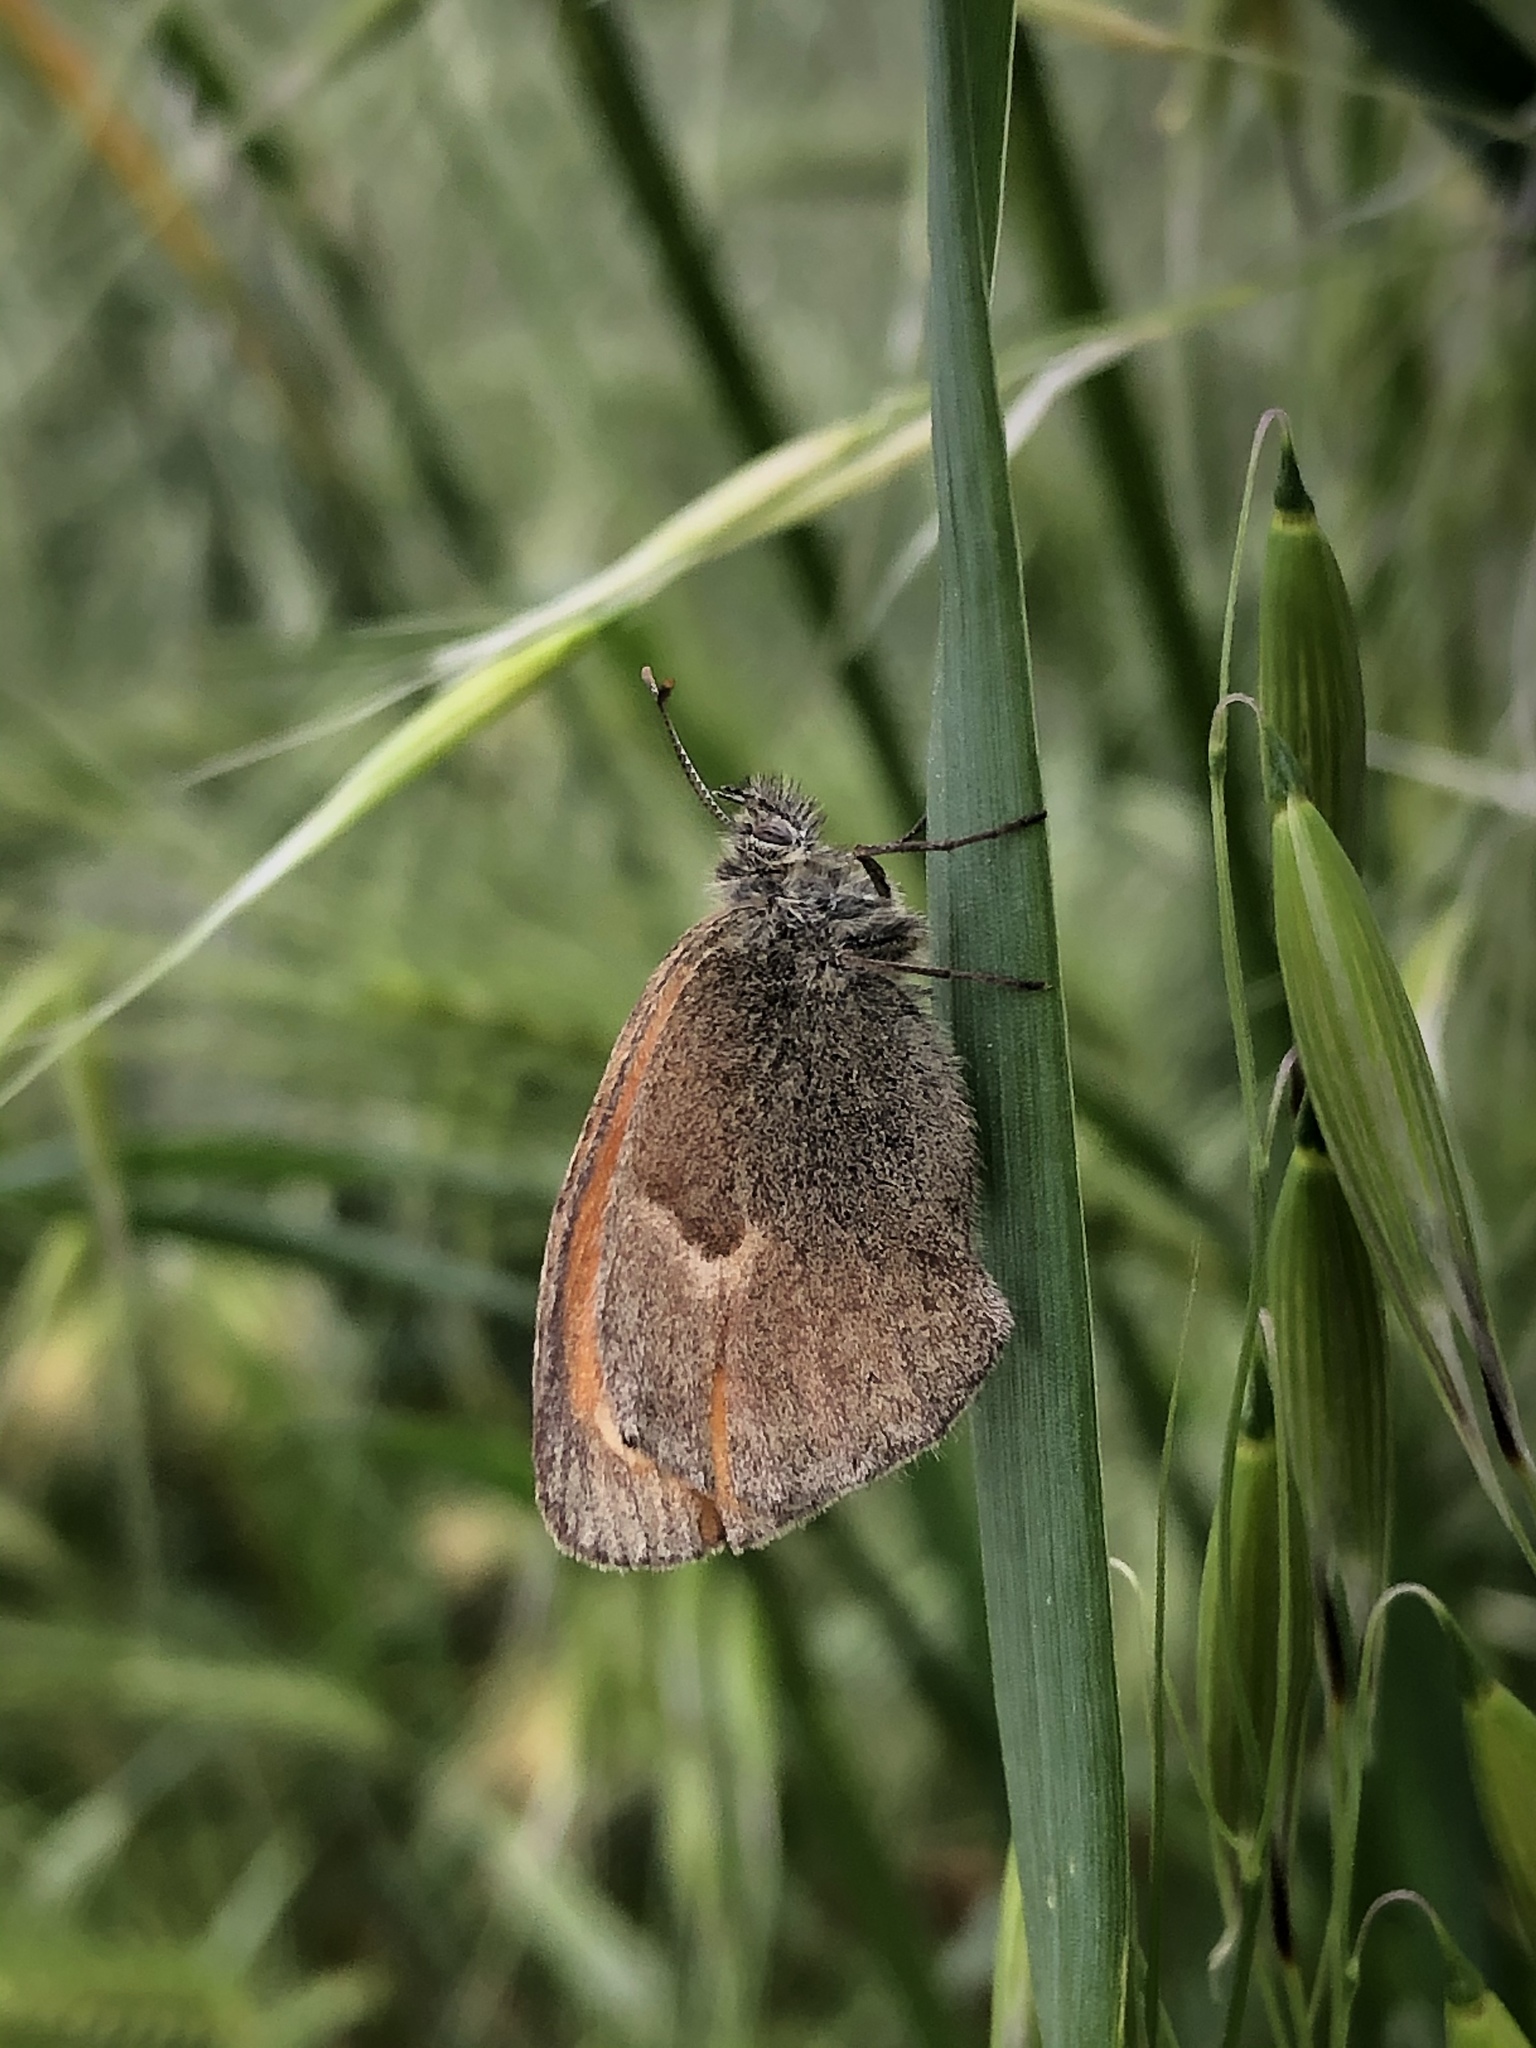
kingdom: Animalia
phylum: Arthropoda
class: Insecta
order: Lepidoptera
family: Nymphalidae
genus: Coenonympha
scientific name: Coenonympha pamphilus
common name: Small heath
